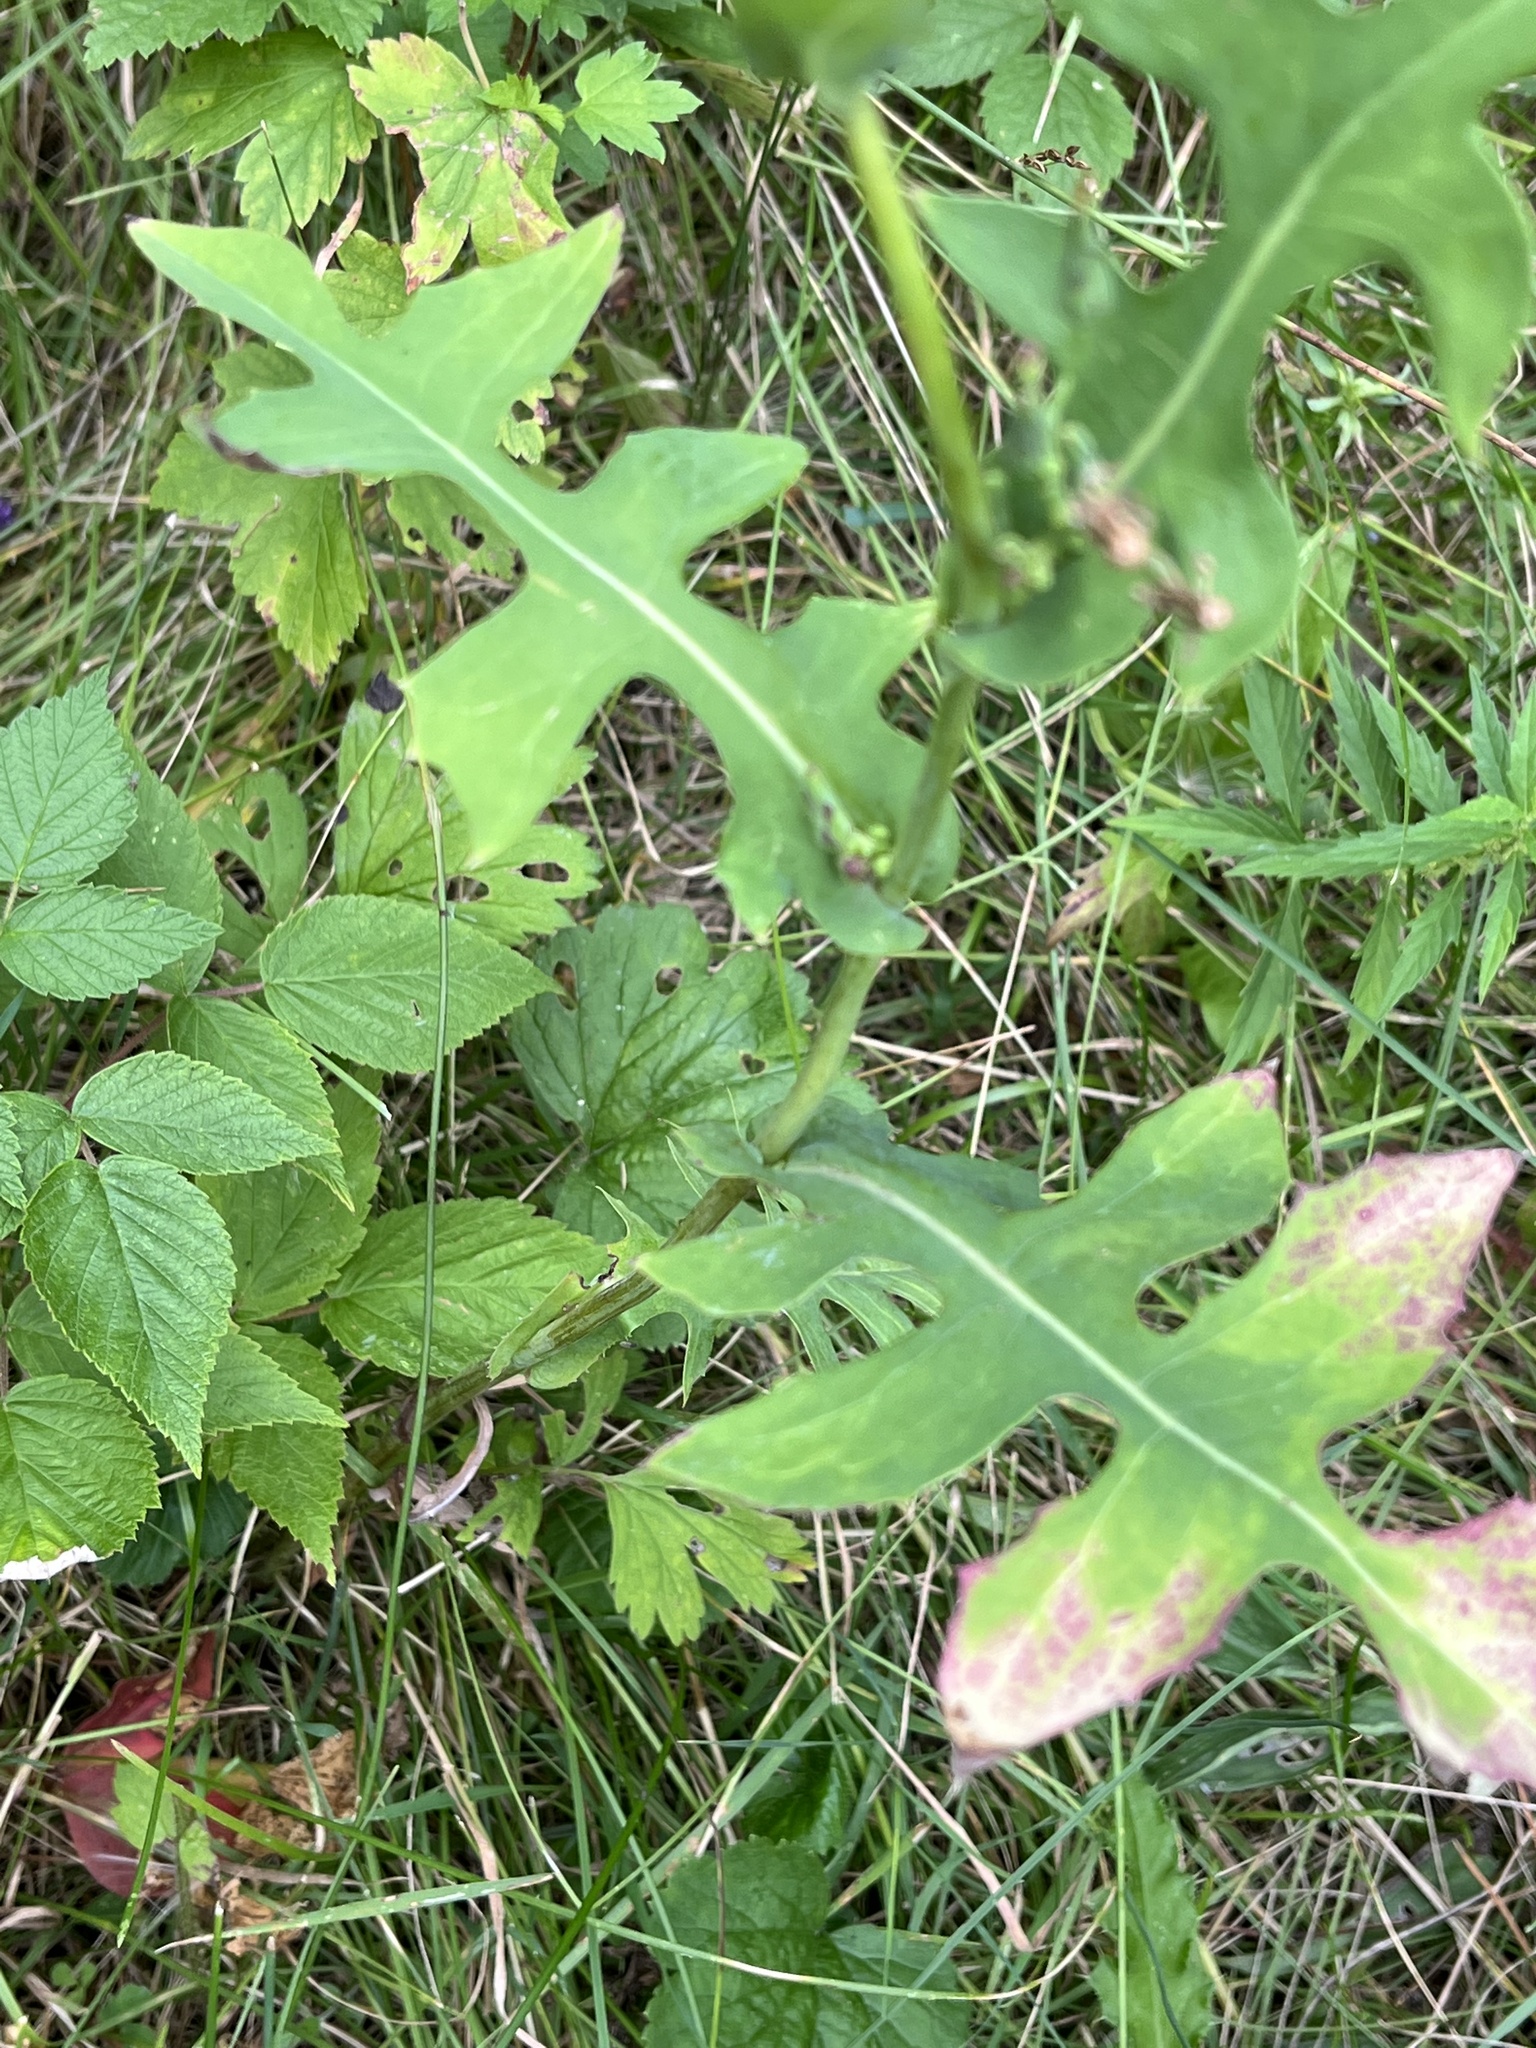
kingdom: Plantae
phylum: Tracheophyta
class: Magnoliopsida
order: Asterales
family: Asteraceae
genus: Lactuca
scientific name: Lactuca canadensis
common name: Canada lettuce
